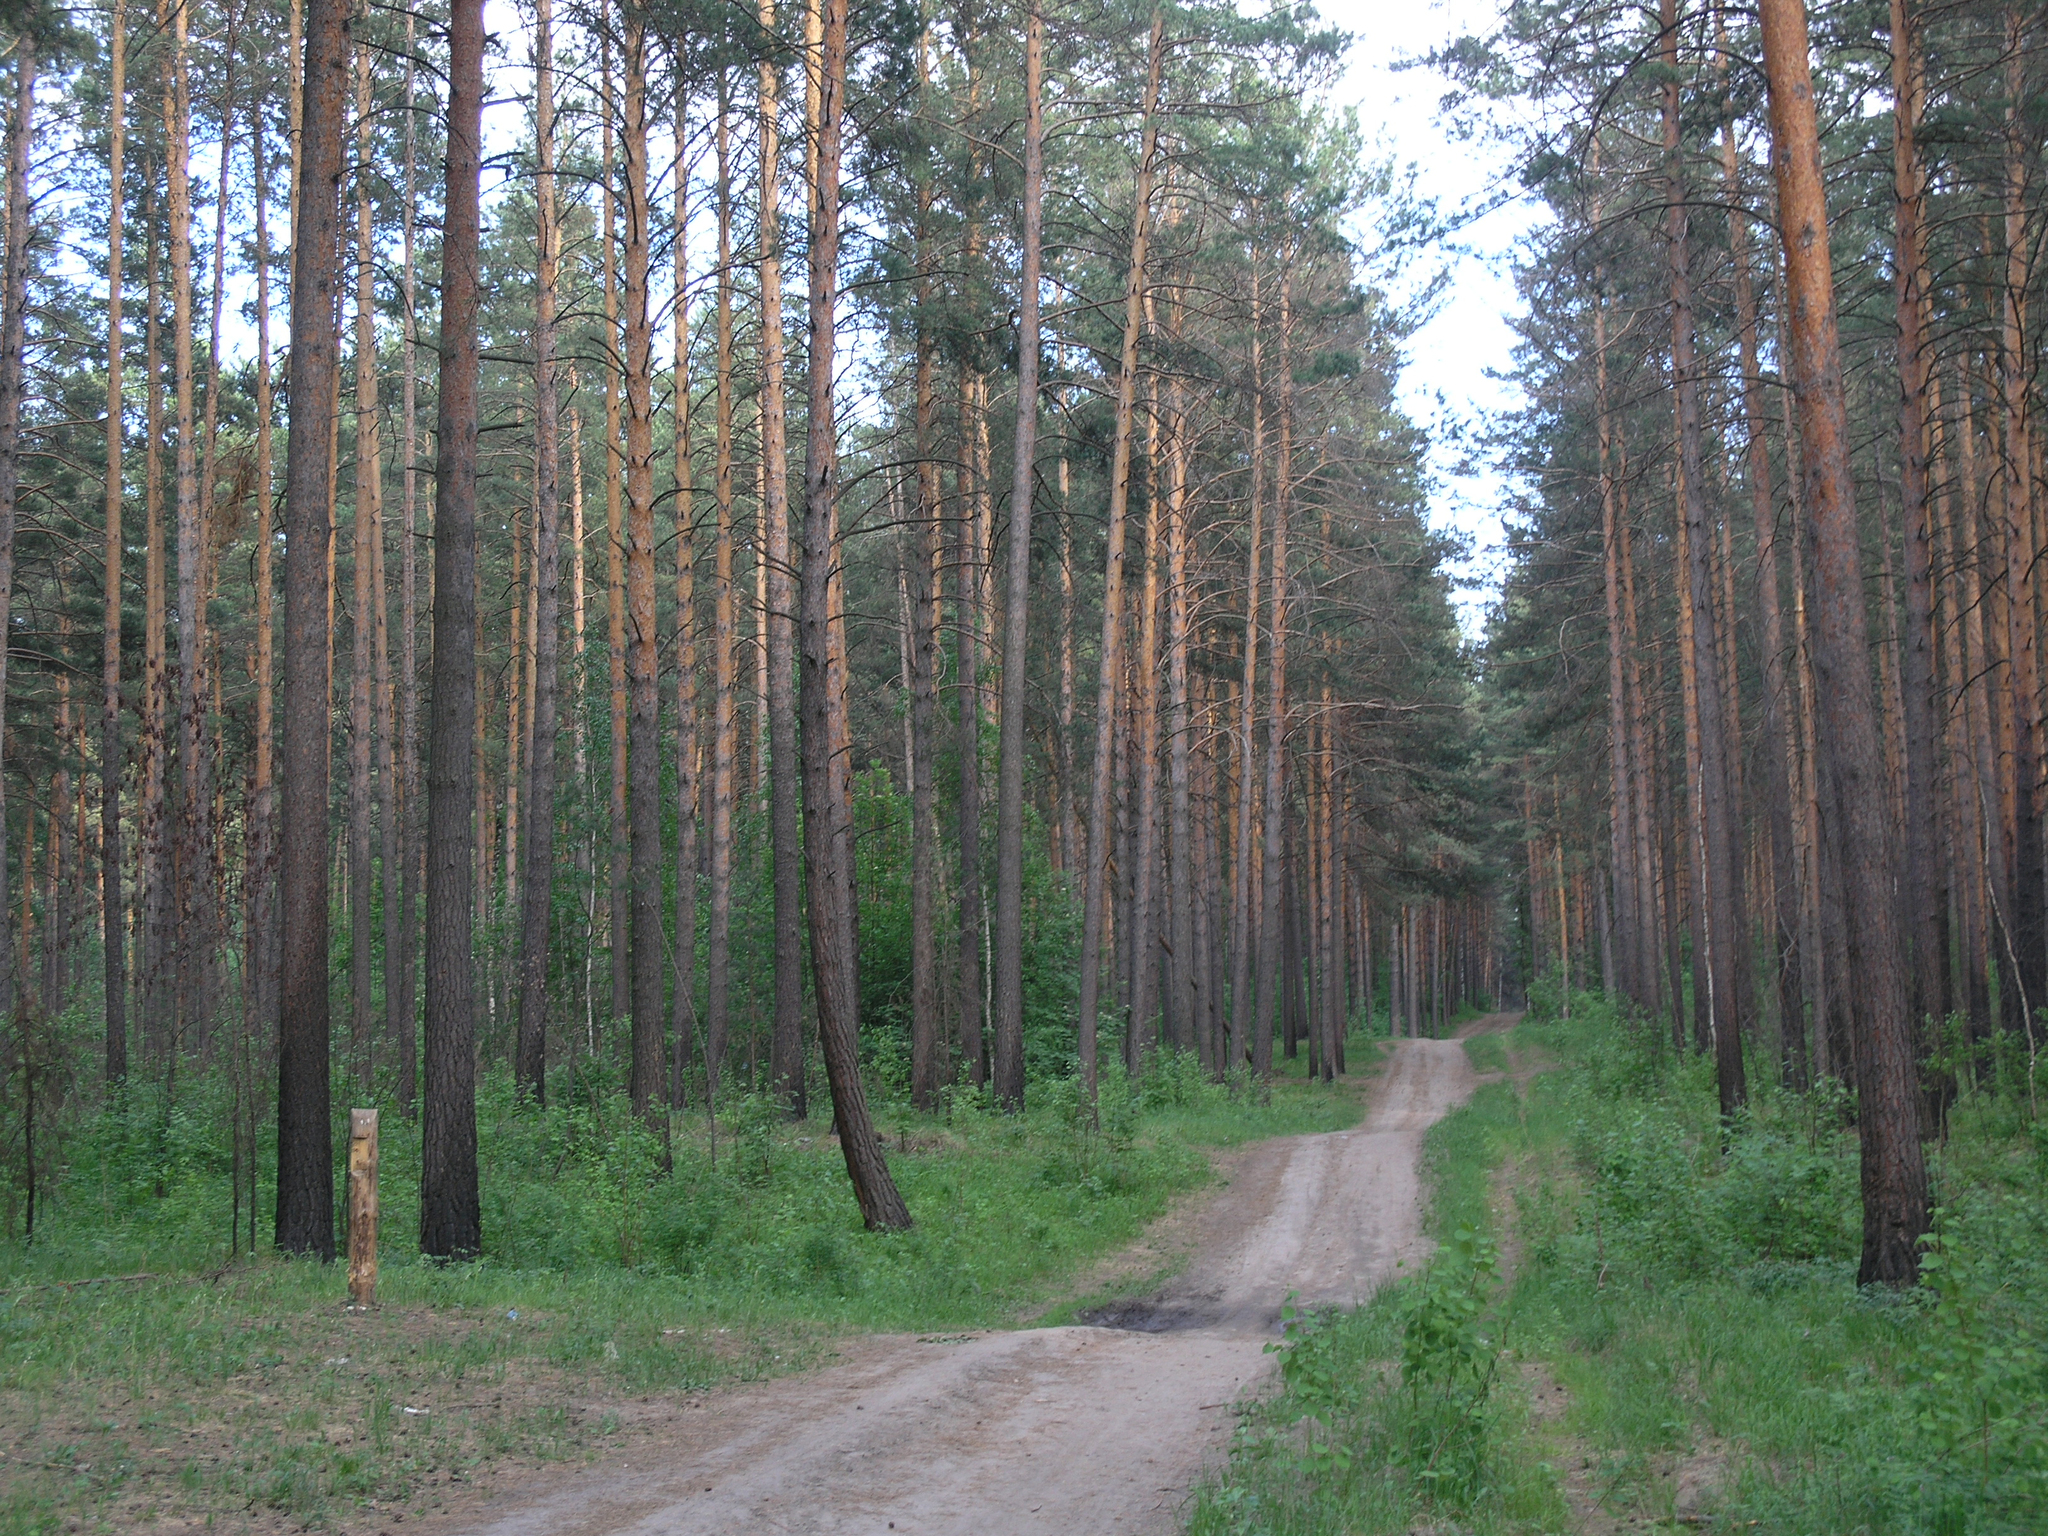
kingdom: Plantae
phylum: Tracheophyta
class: Pinopsida
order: Pinales
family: Pinaceae
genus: Pinus
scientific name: Pinus sylvestris
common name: Scots pine
